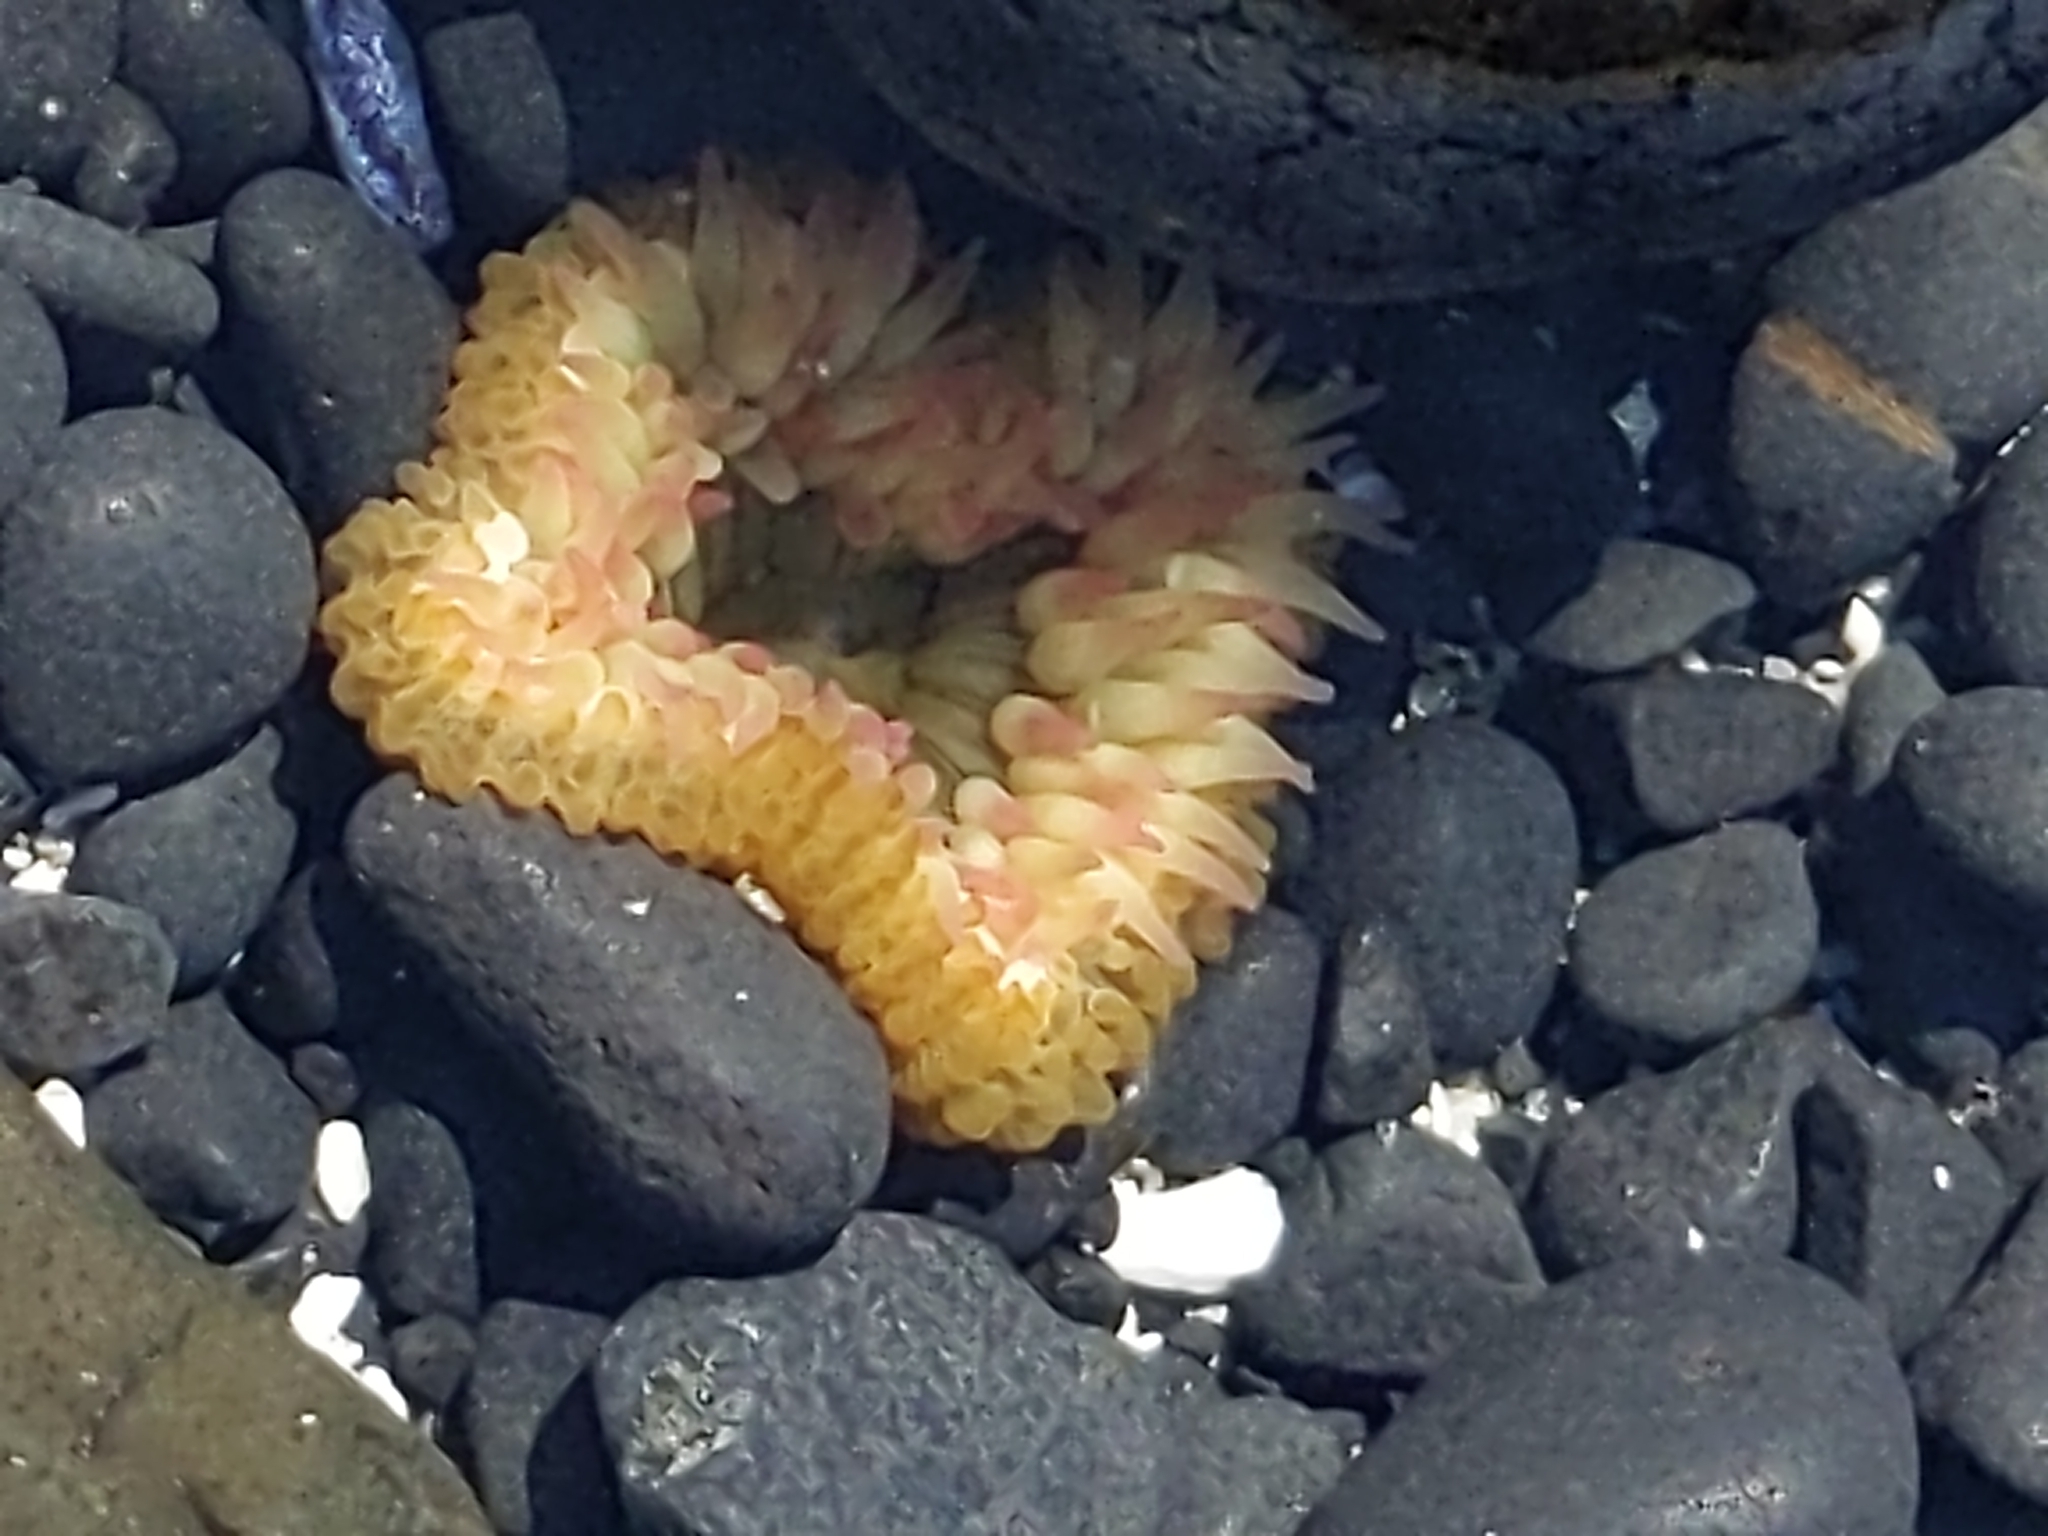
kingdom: Animalia
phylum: Cnidaria
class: Anthozoa
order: Actiniaria
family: Actiniidae
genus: Anthopleura
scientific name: Anthopleura elegantissima
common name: Clonal anemone
